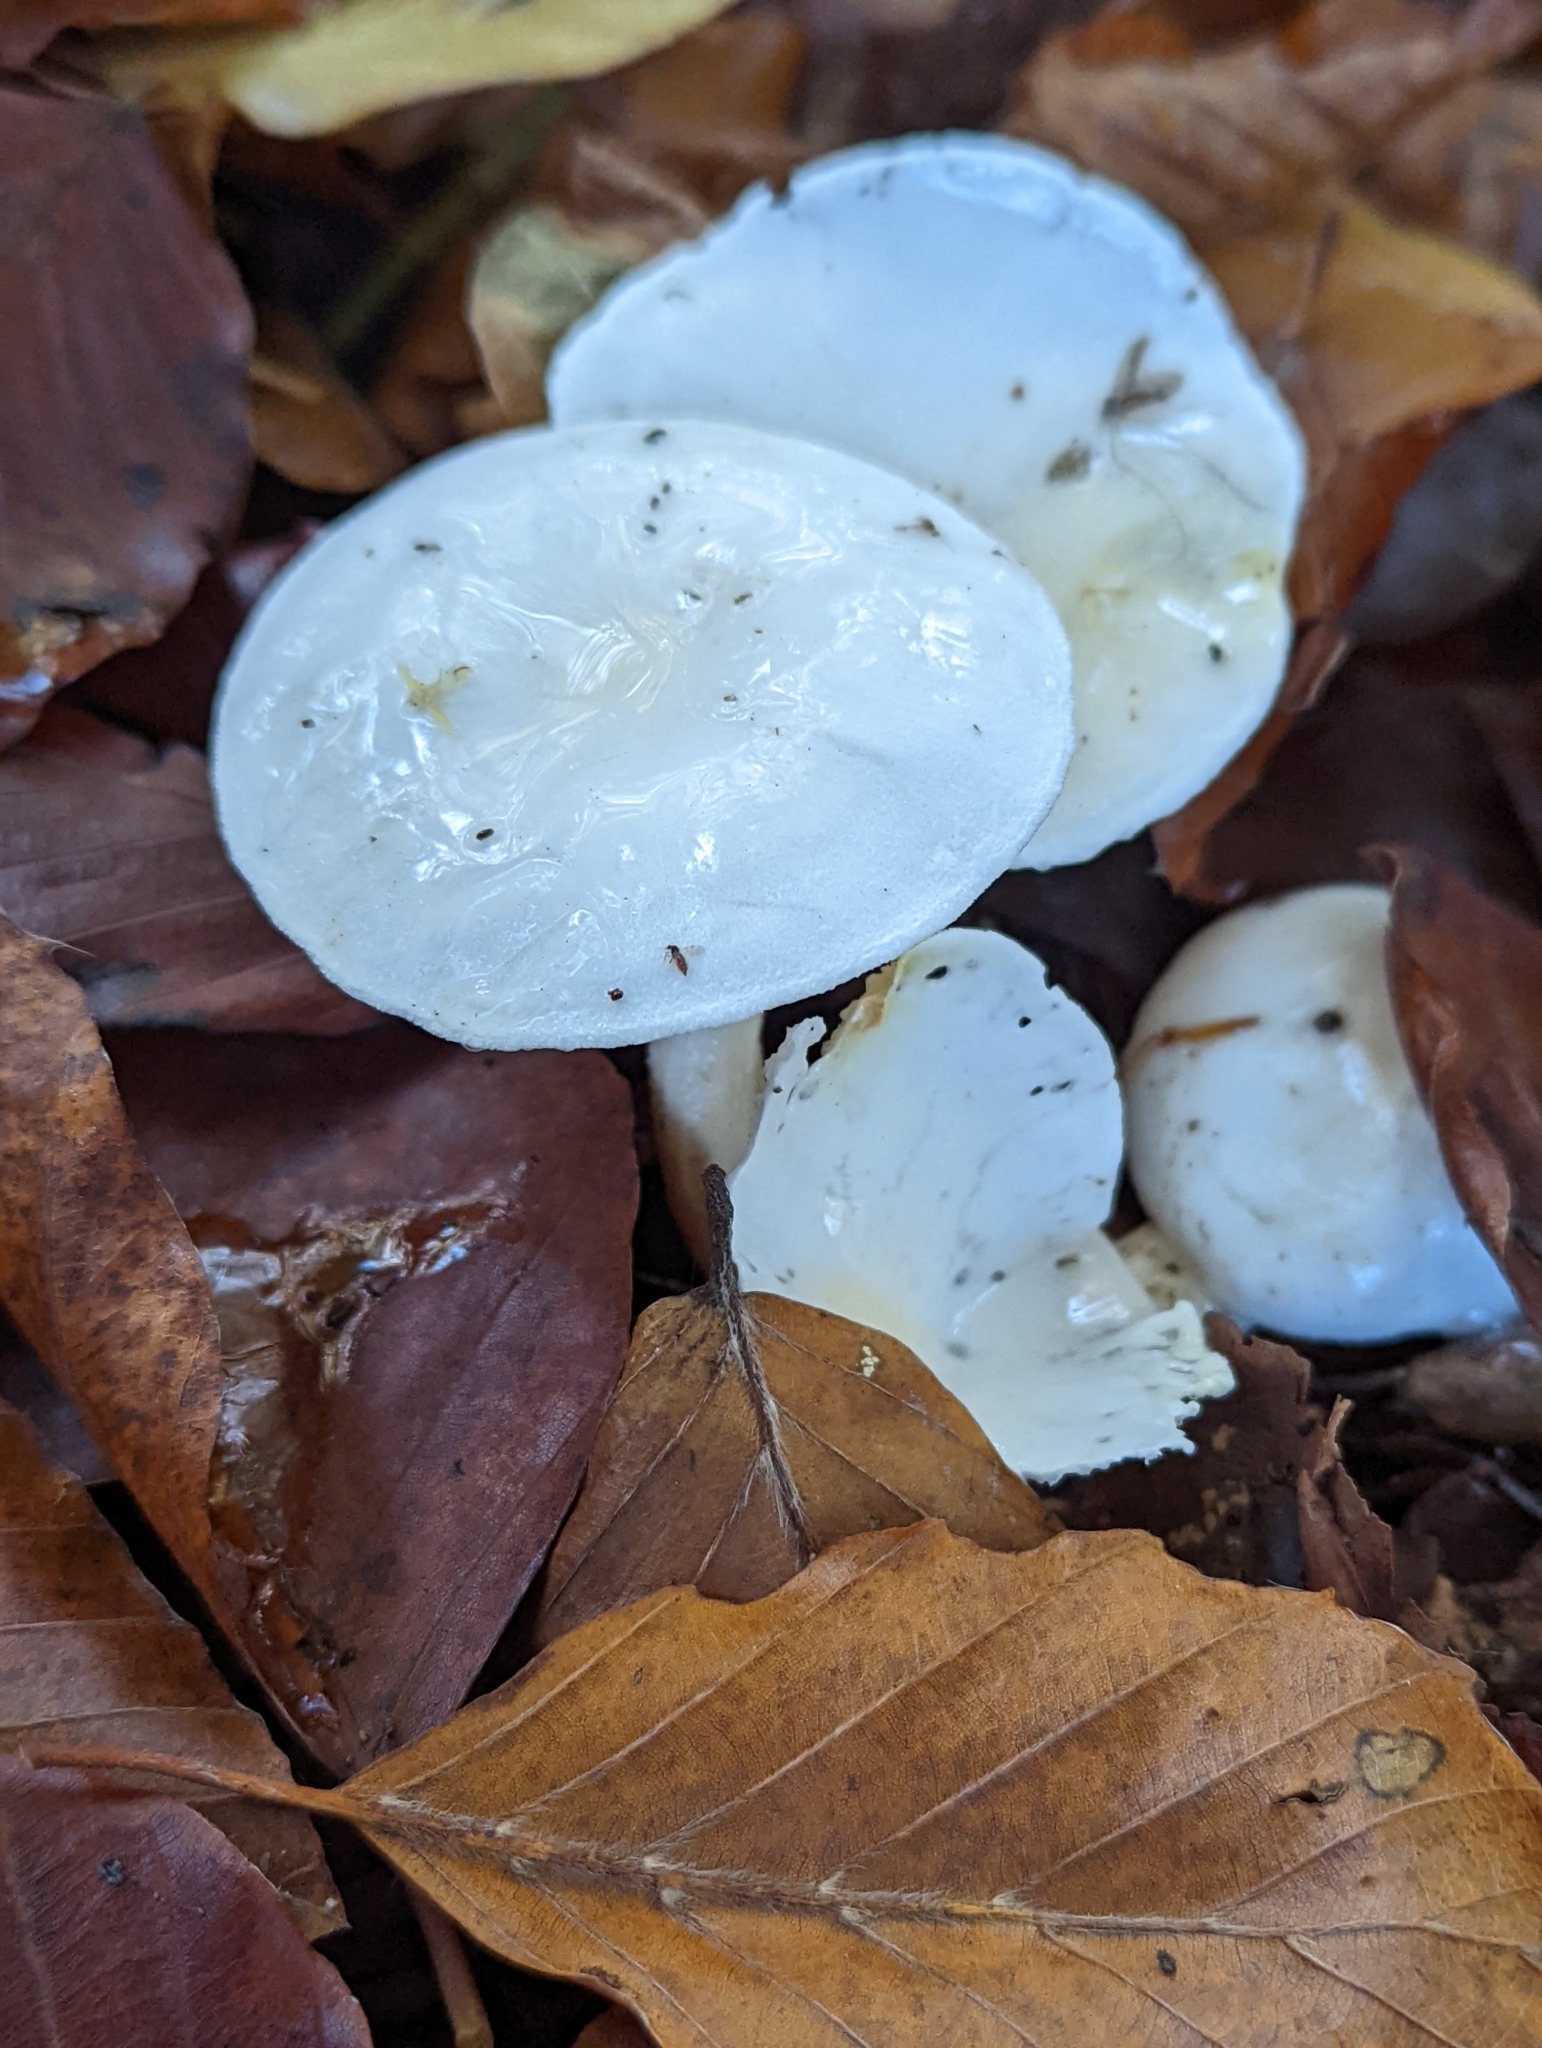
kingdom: Fungi
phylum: Basidiomycota
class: Agaricomycetes
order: Agaricales
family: Hygrophoraceae
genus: Hygrophorus
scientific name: Hygrophorus eburneus
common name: Ivory wax-cap
